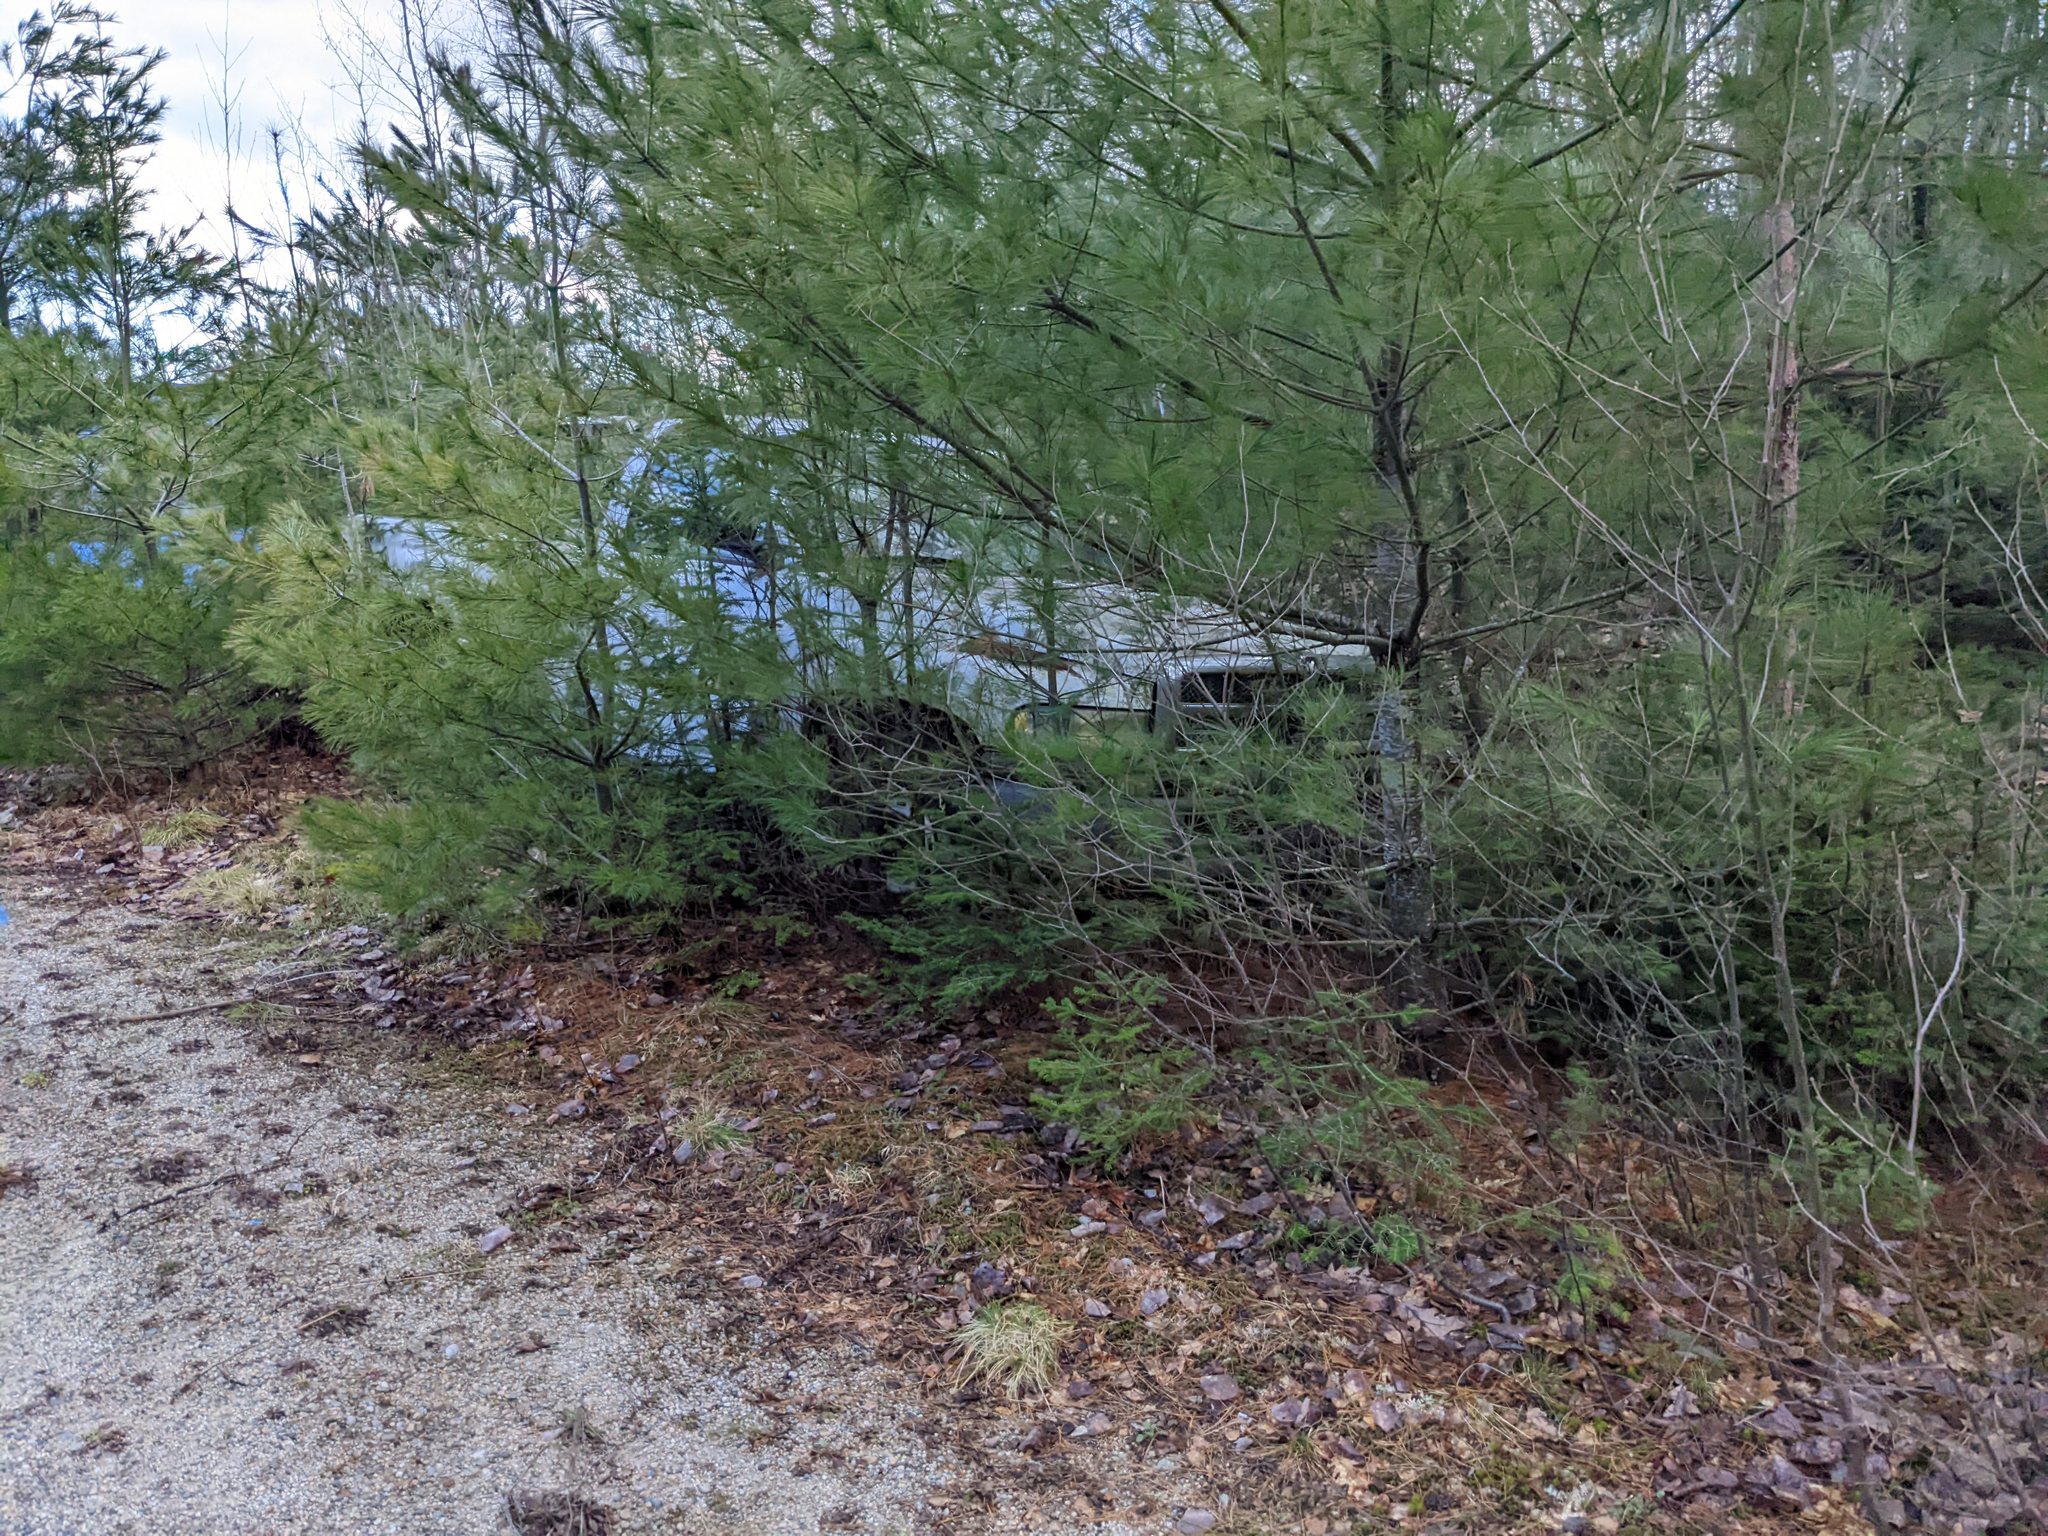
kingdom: Plantae
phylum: Tracheophyta
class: Pinopsida
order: Pinales
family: Pinaceae
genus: Pinus
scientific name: Pinus strobus
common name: Weymouth pine
